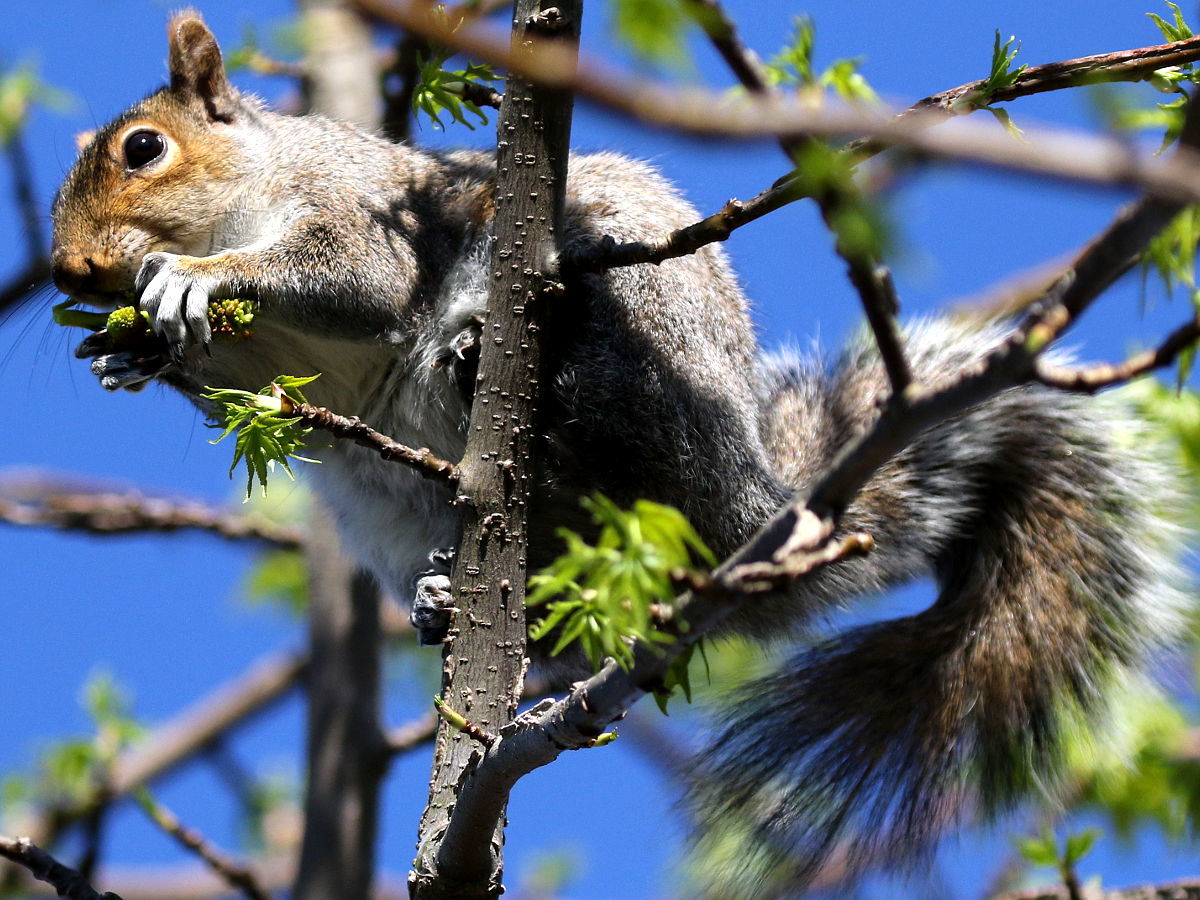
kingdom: Animalia
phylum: Chordata
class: Mammalia
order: Rodentia
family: Sciuridae
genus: Sciurus
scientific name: Sciurus carolinensis
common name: Eastern gray squirrel
